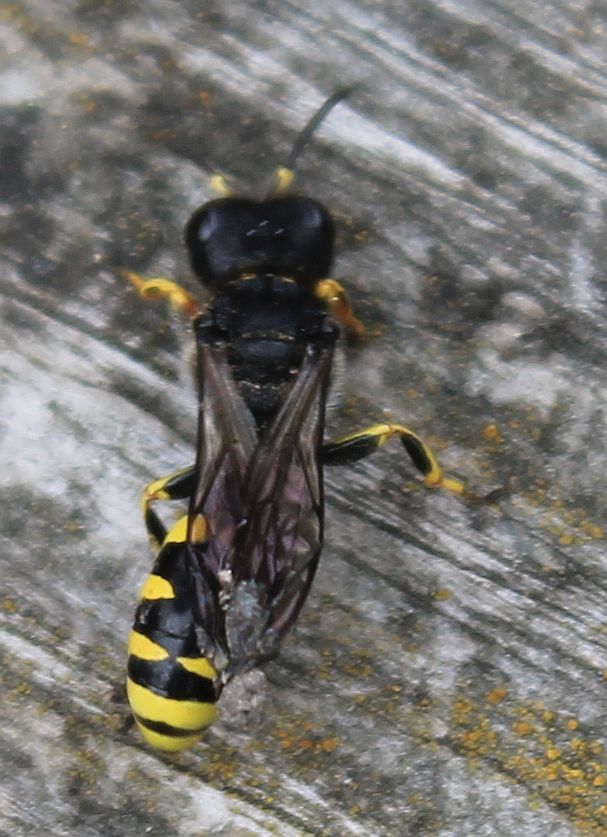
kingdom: Animalia
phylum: Arthropoda
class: Insecta
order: Hymenoptera
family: Crabronidae
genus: Ectemnius
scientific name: Ectemnius cephalotes
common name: Sphecid wasp
